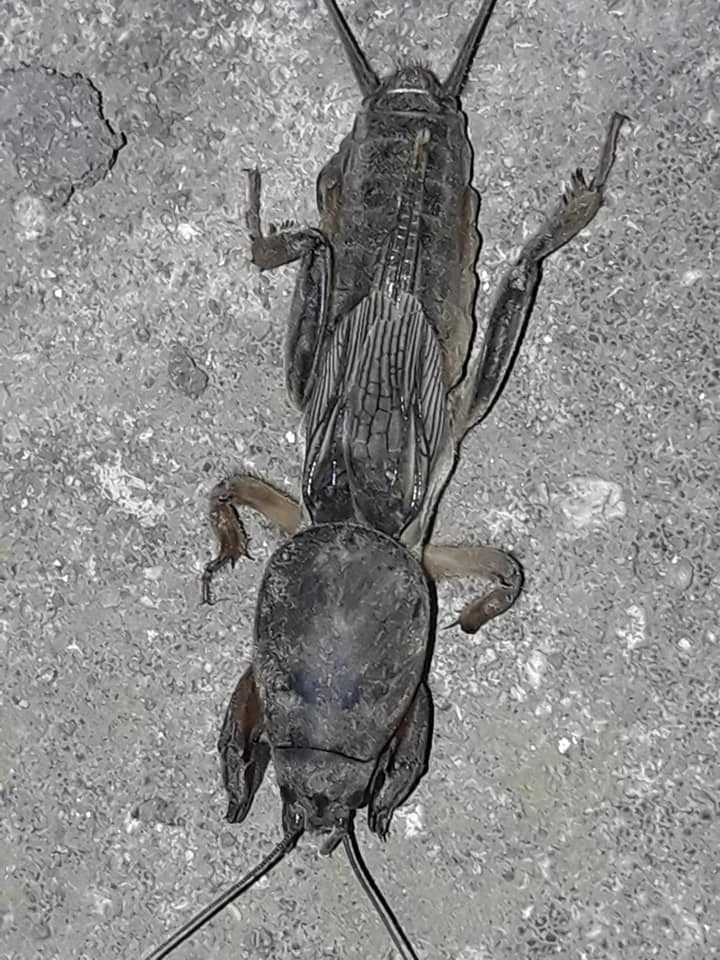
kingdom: Animalia
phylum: Arthropoda
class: Insecta
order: Orthoptera
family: Gryllotalpidae
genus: Gryllotalpa
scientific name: Gryllotalpa stepposa
